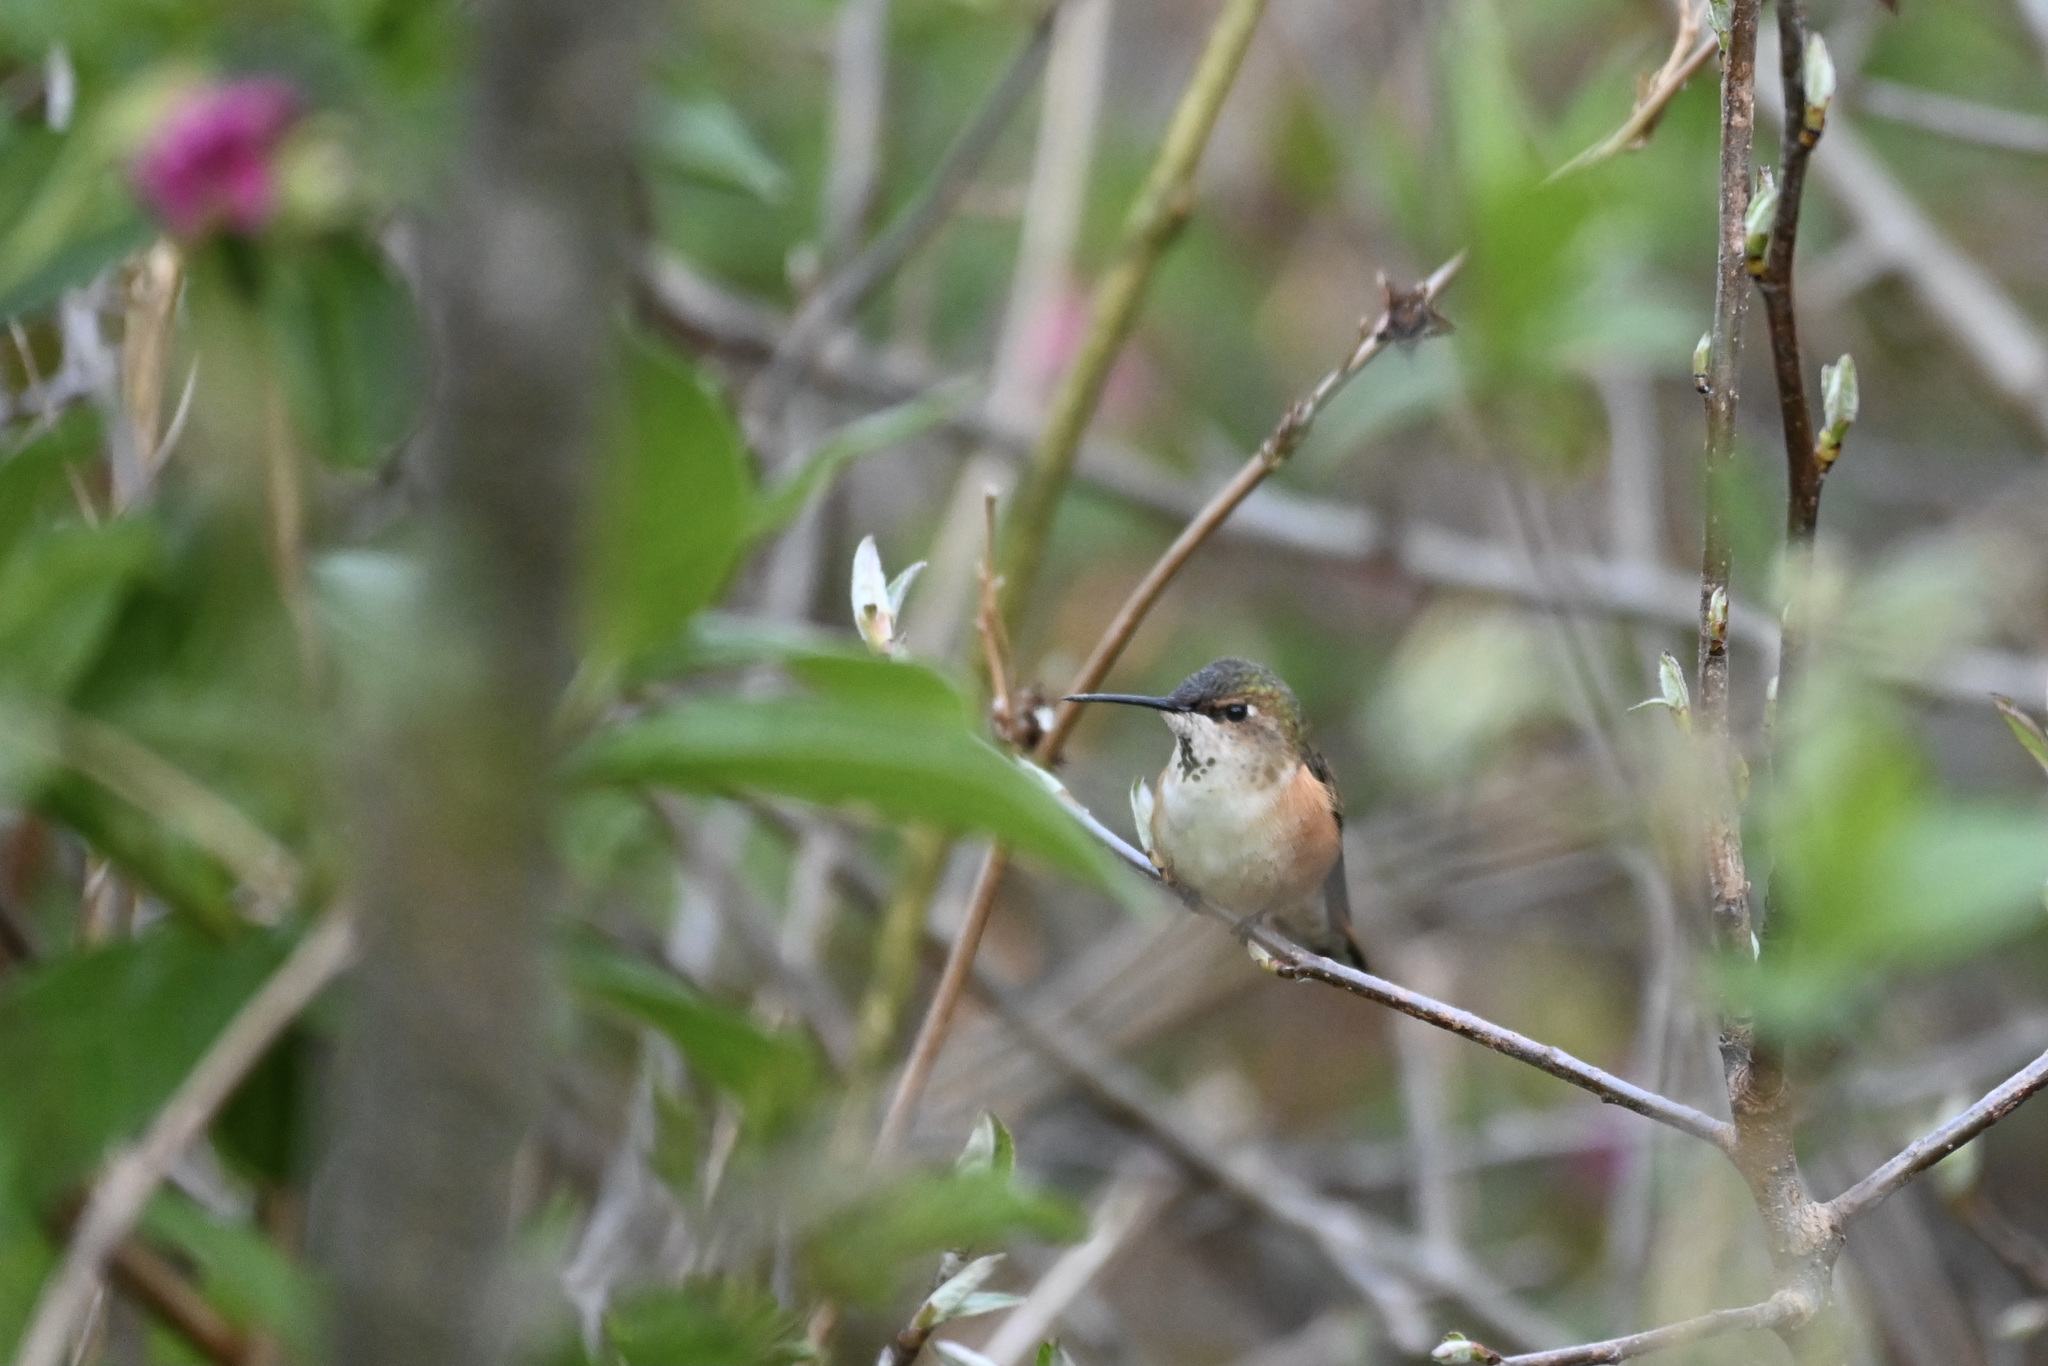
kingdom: Animalia
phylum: Chordata
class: Aves
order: Apodiformes
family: Trochilidae
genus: Selasphorus
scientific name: Selasphorus rufus
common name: Rufous hummingbird
